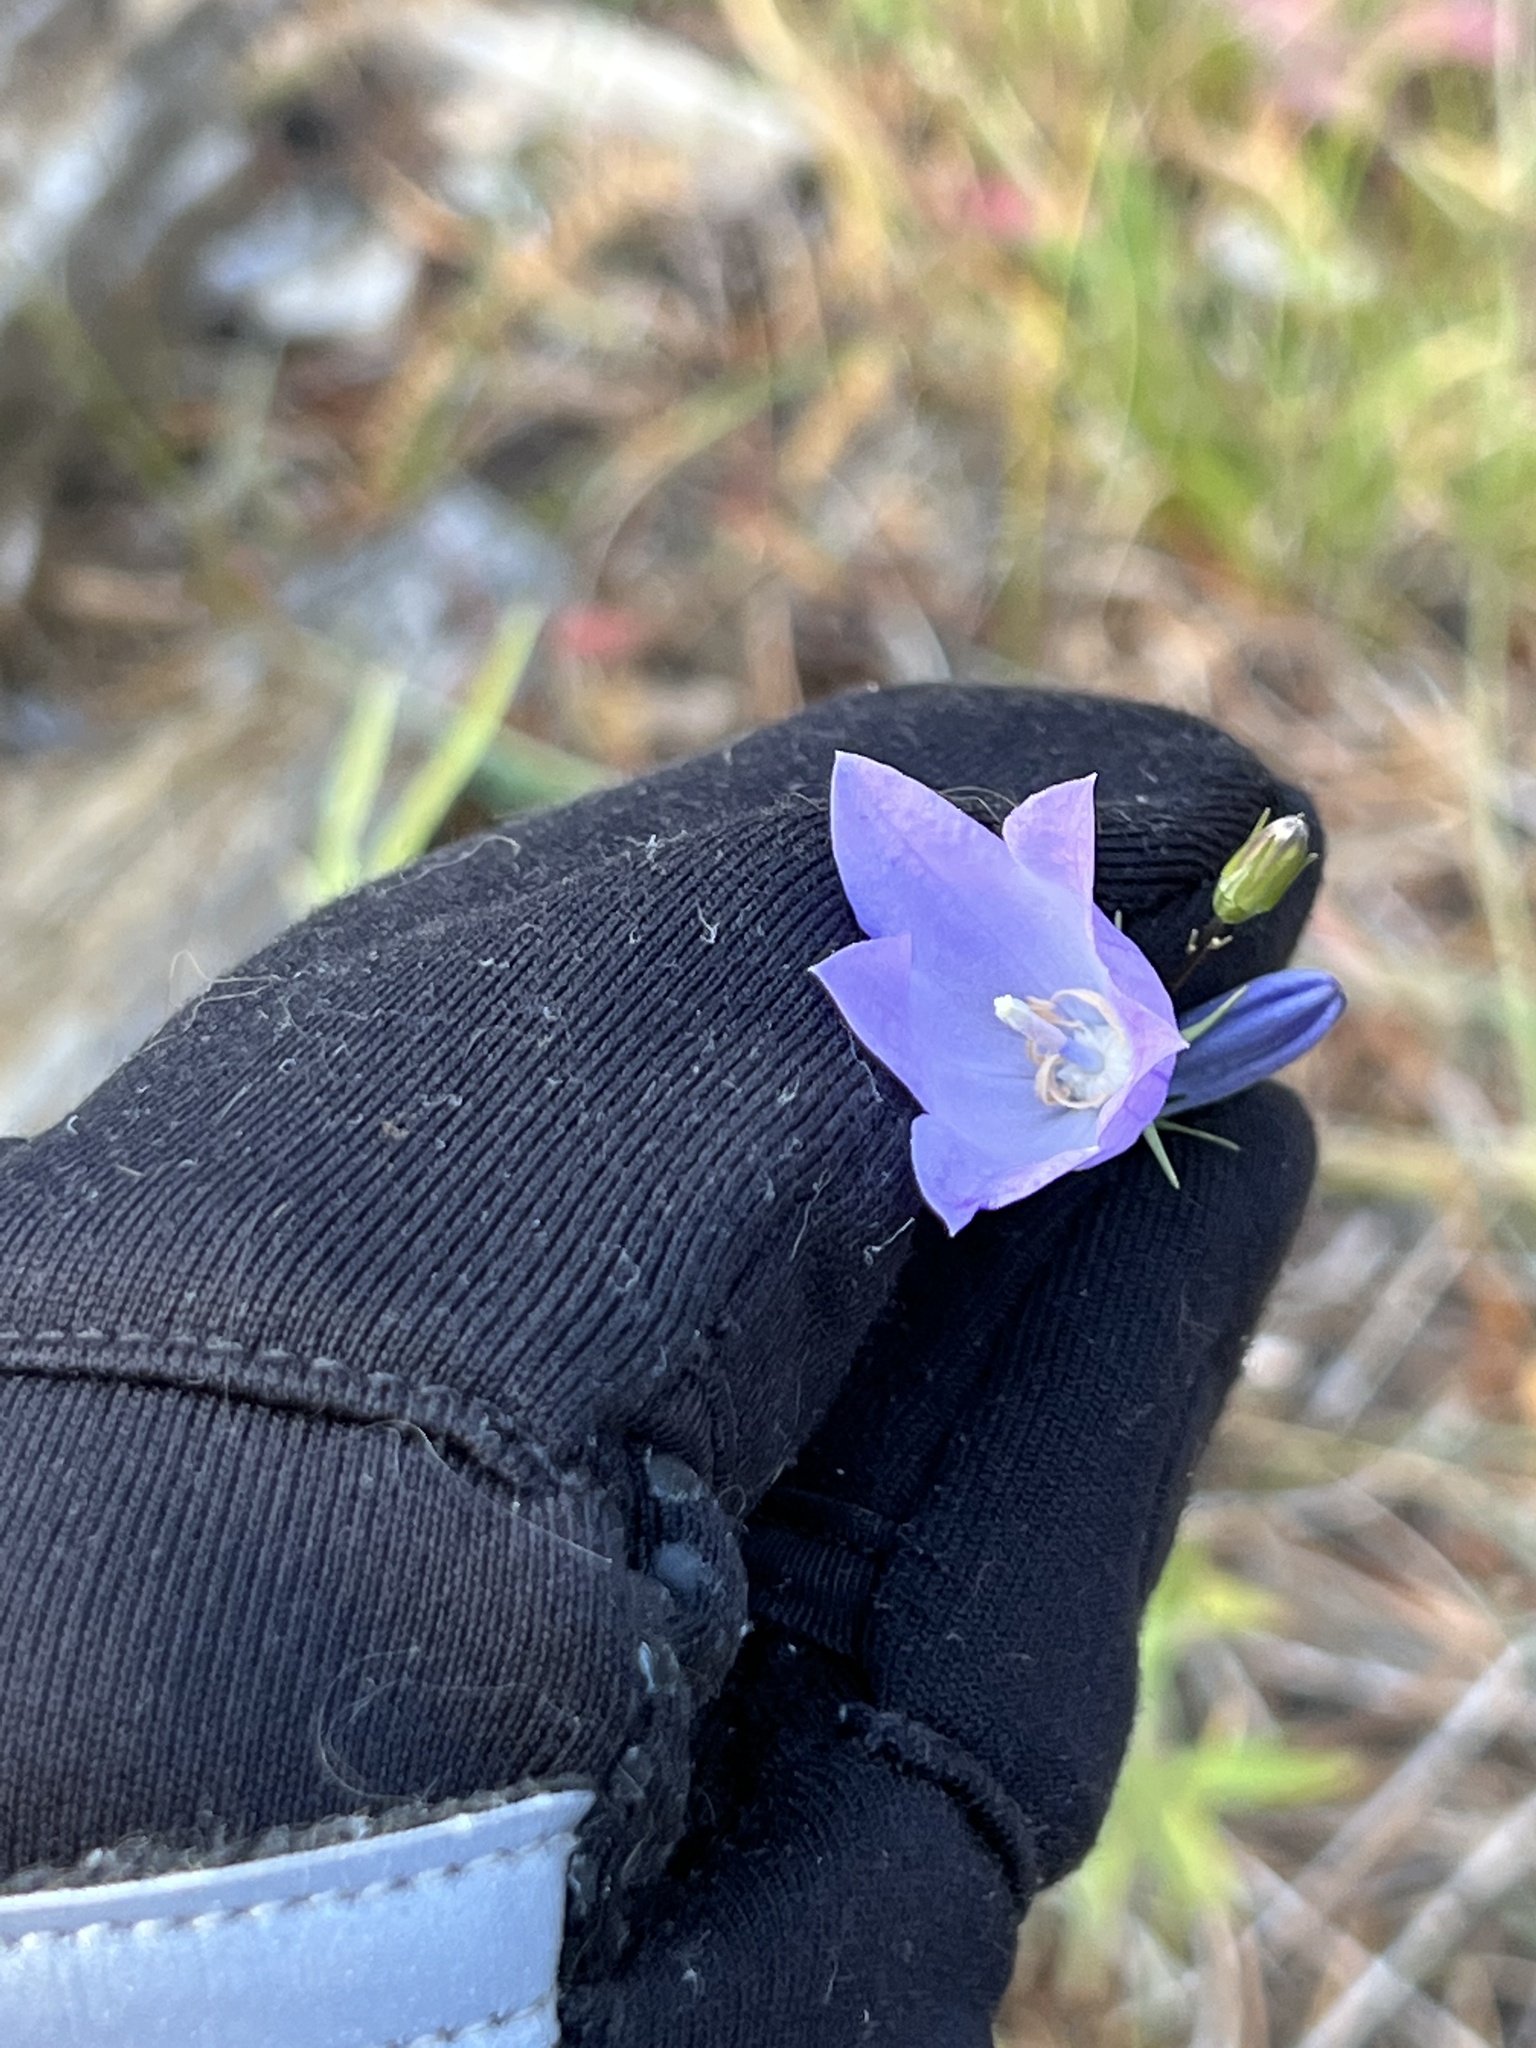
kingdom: Plantae
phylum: Tracheophyta
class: Magnoliopsida
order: Asterales
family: Campanulaceae
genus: Campanula
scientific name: Campanula petiolata
